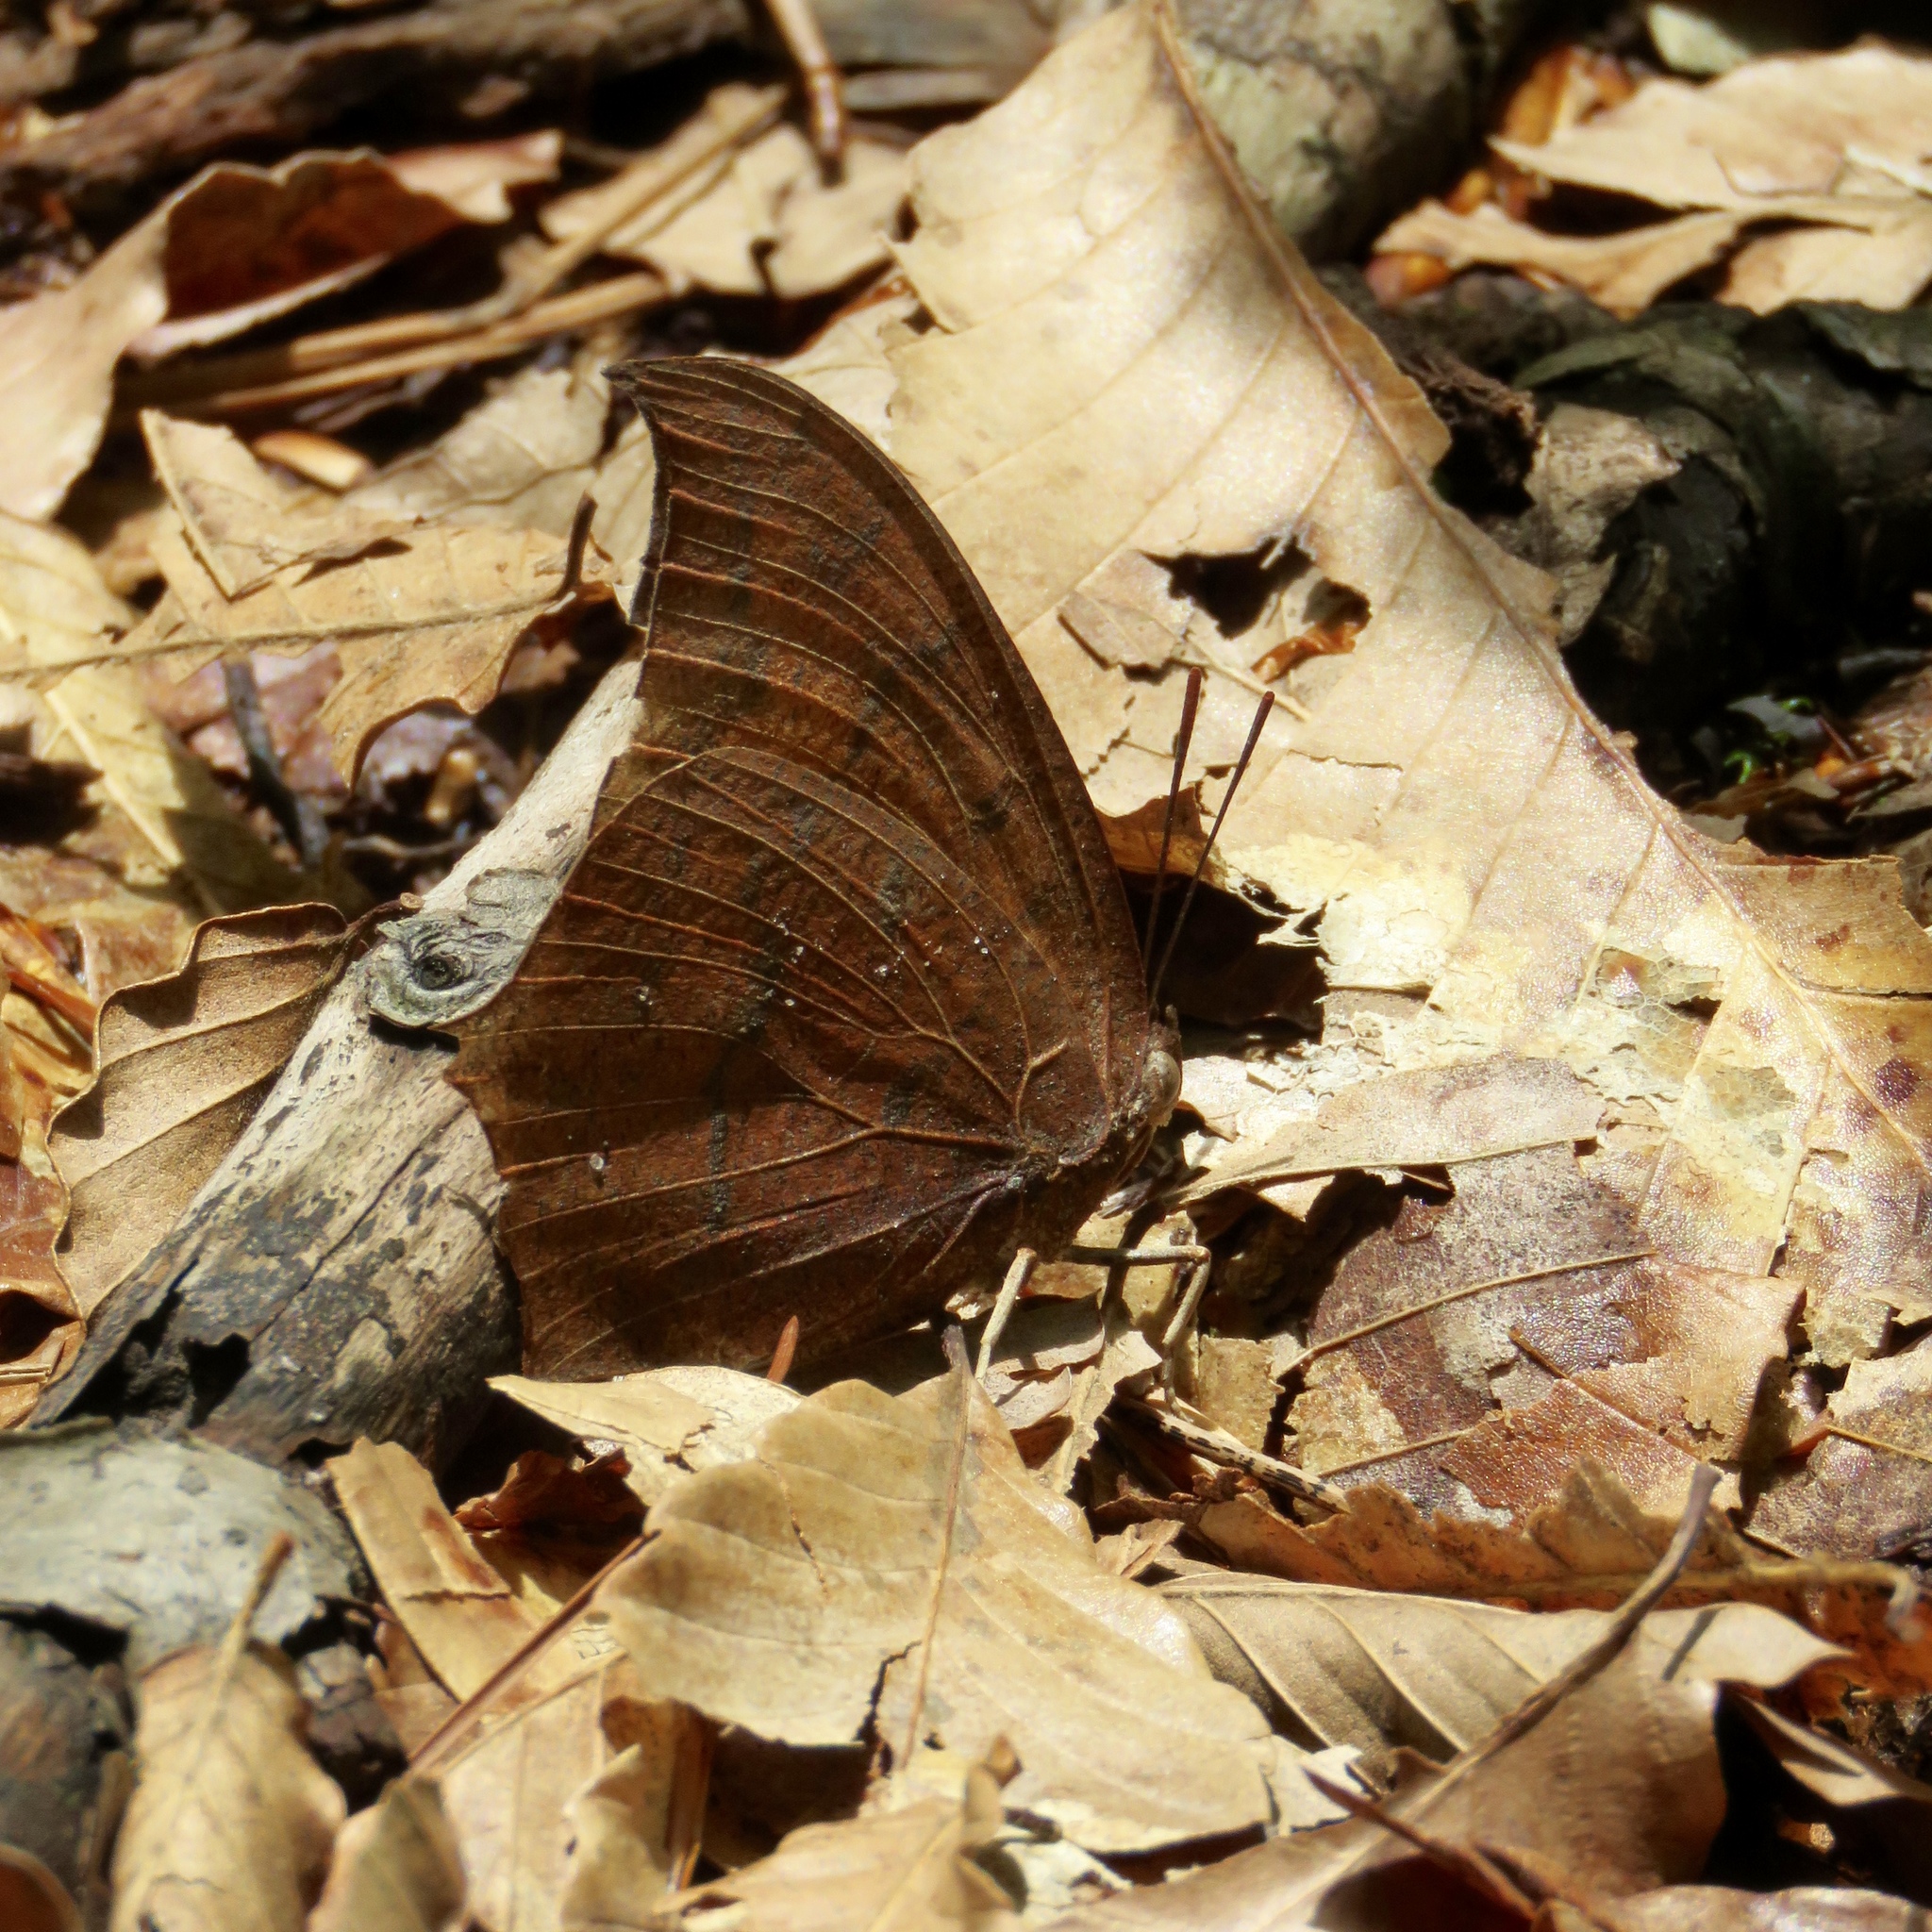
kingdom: Animalia
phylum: Arthropoda
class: Insecta
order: Lepidoptera
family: Nymphalidae
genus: Anaea
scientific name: Anaea andria
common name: Goatweed leafwing
